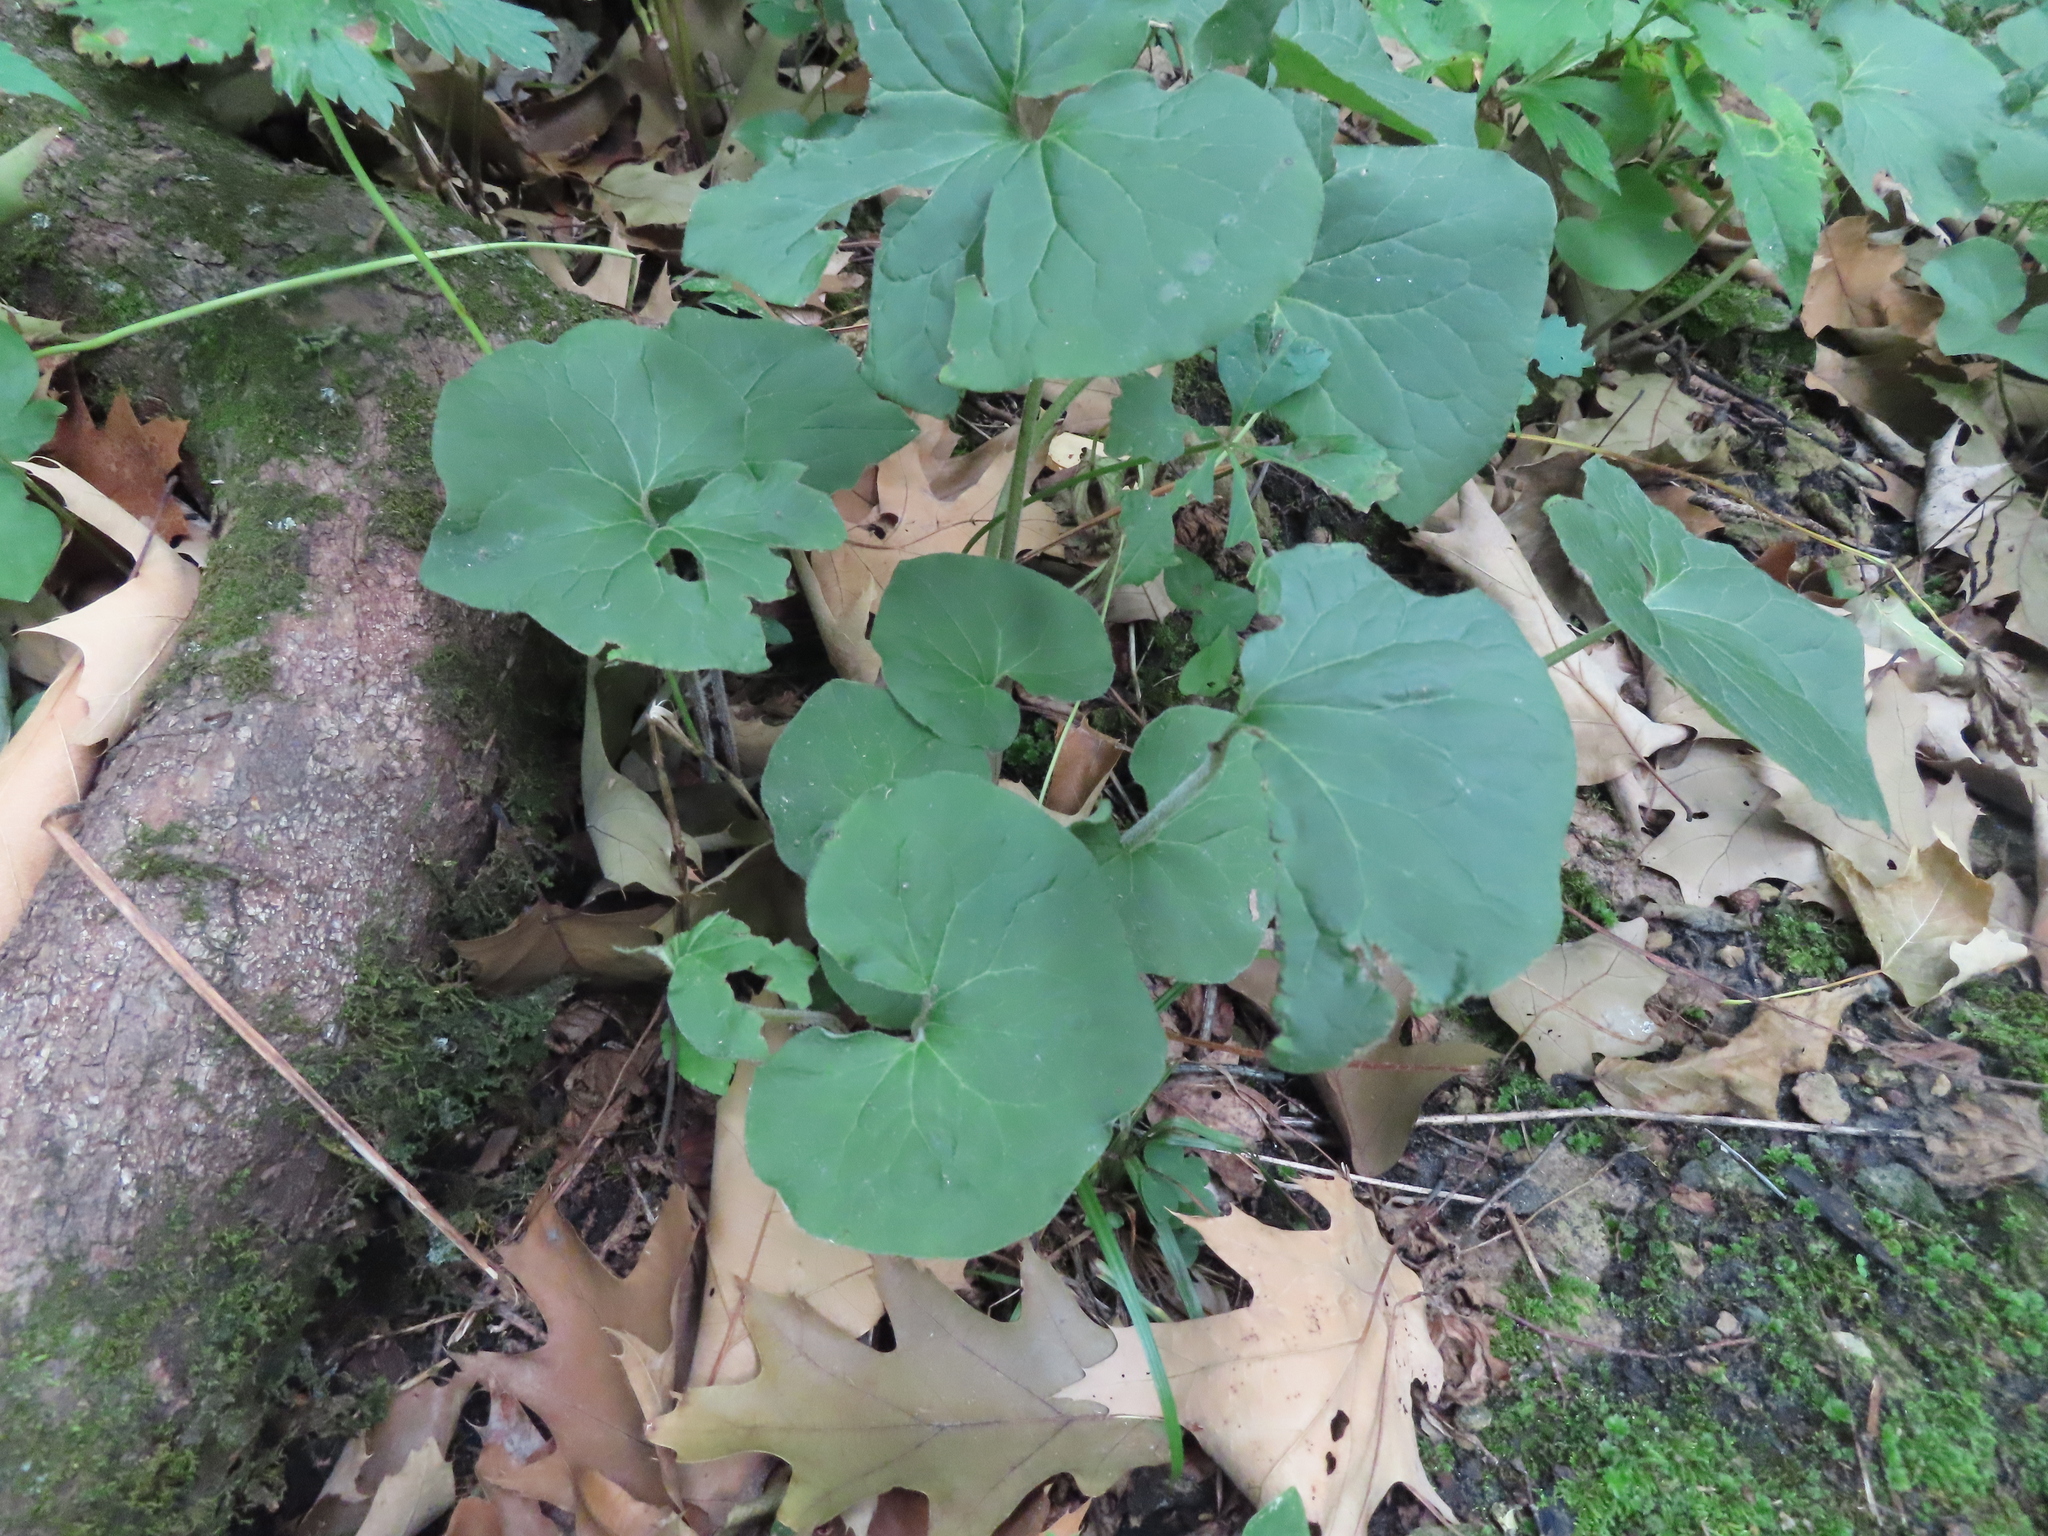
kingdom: Plantae
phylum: Tracheophyta
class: Magnoliopsida
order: Piperales
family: Aristolochiaceae
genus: Asarum
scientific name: Asarum canadense
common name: Wild ginger
